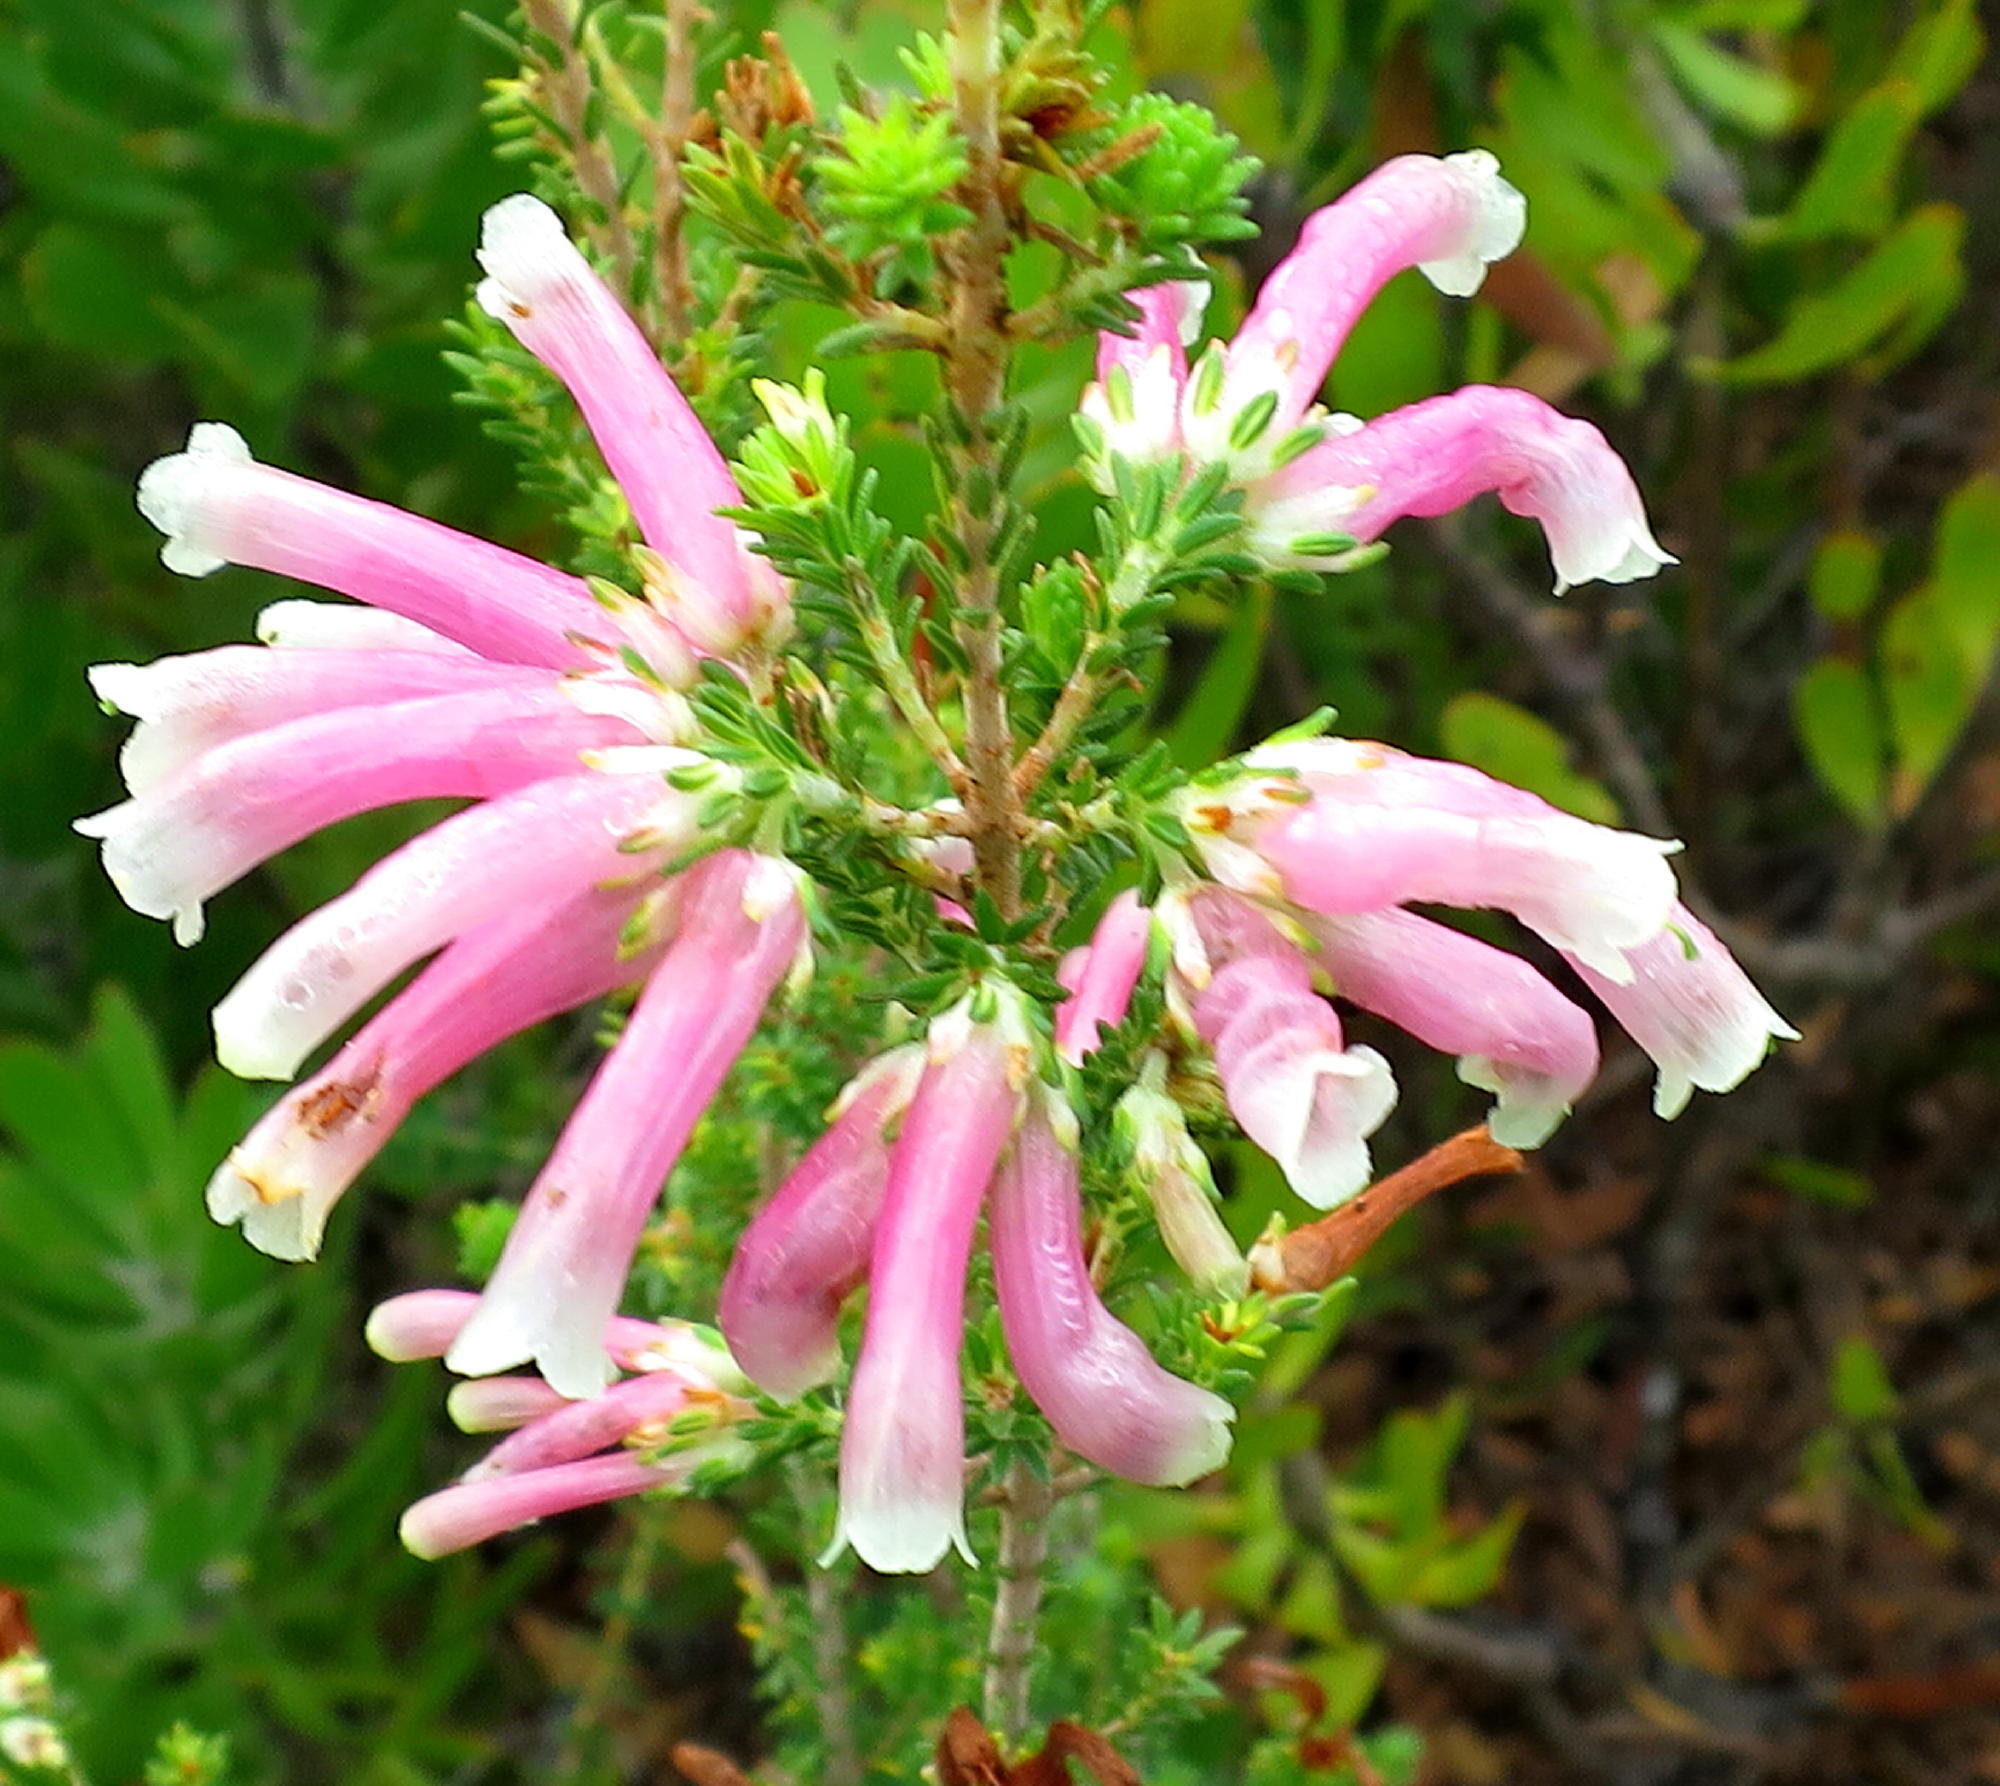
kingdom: Plantae
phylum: Tracheophyta
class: Magnoliopsida
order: Ericales
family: Ericaceae
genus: Erica
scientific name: Erica versicolor
